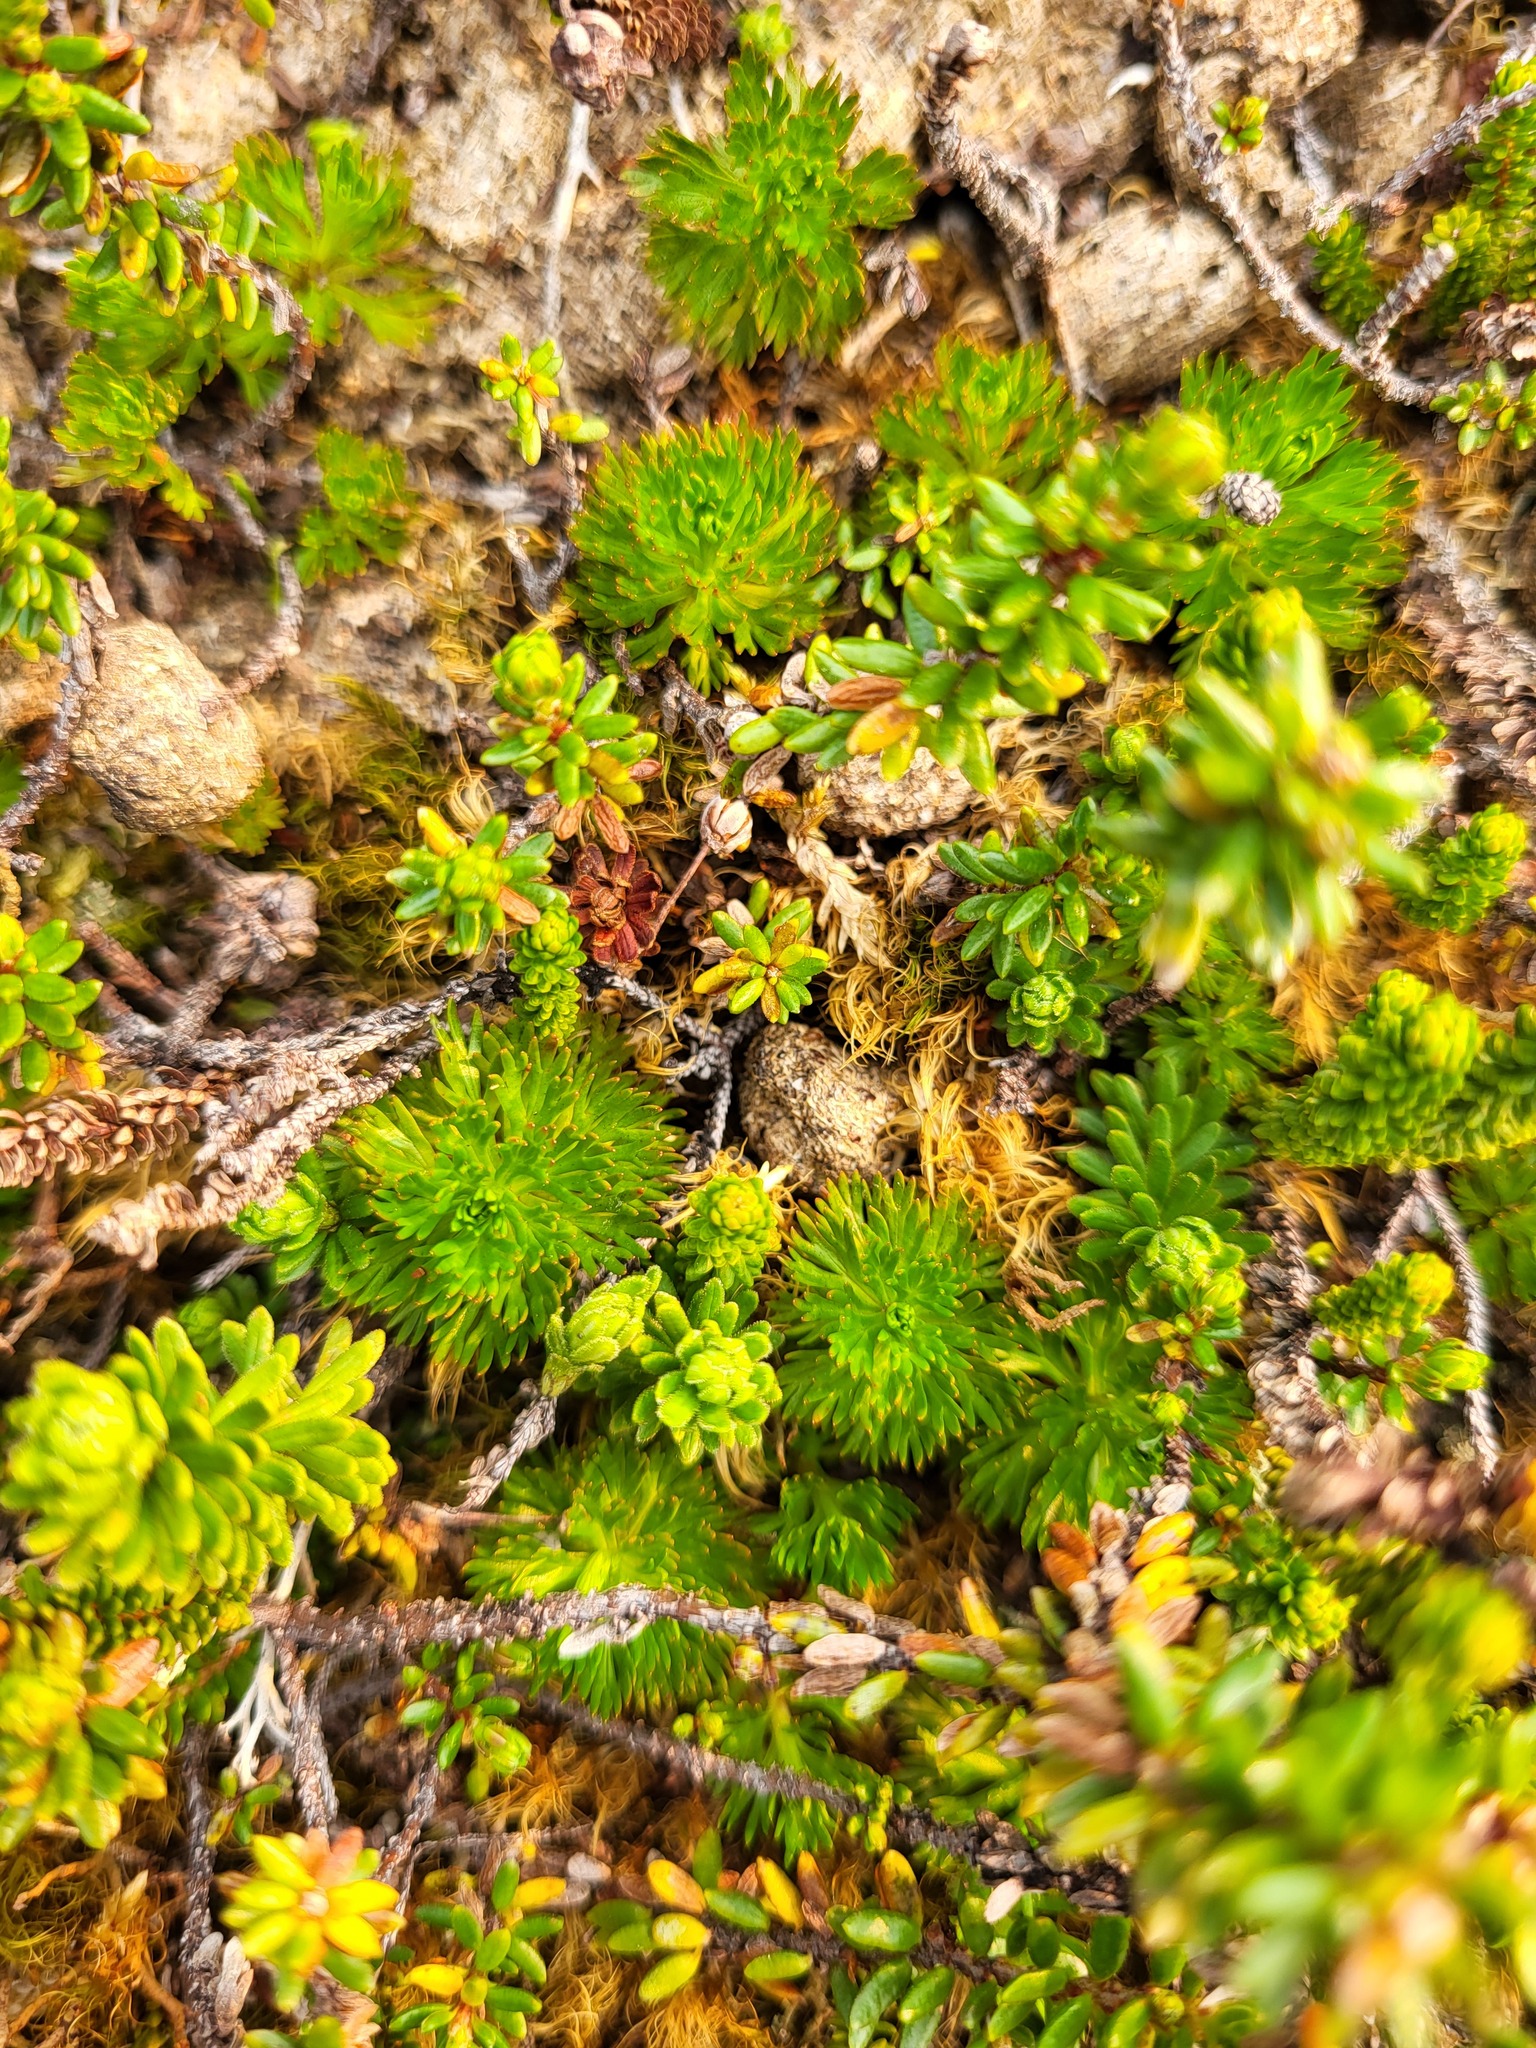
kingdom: Plantae
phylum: Tracheophyta
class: Magnoliopsida
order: Rosales
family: Rosaceae
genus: Luetkea
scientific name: Luetkea pectinata
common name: Partridgefoot
